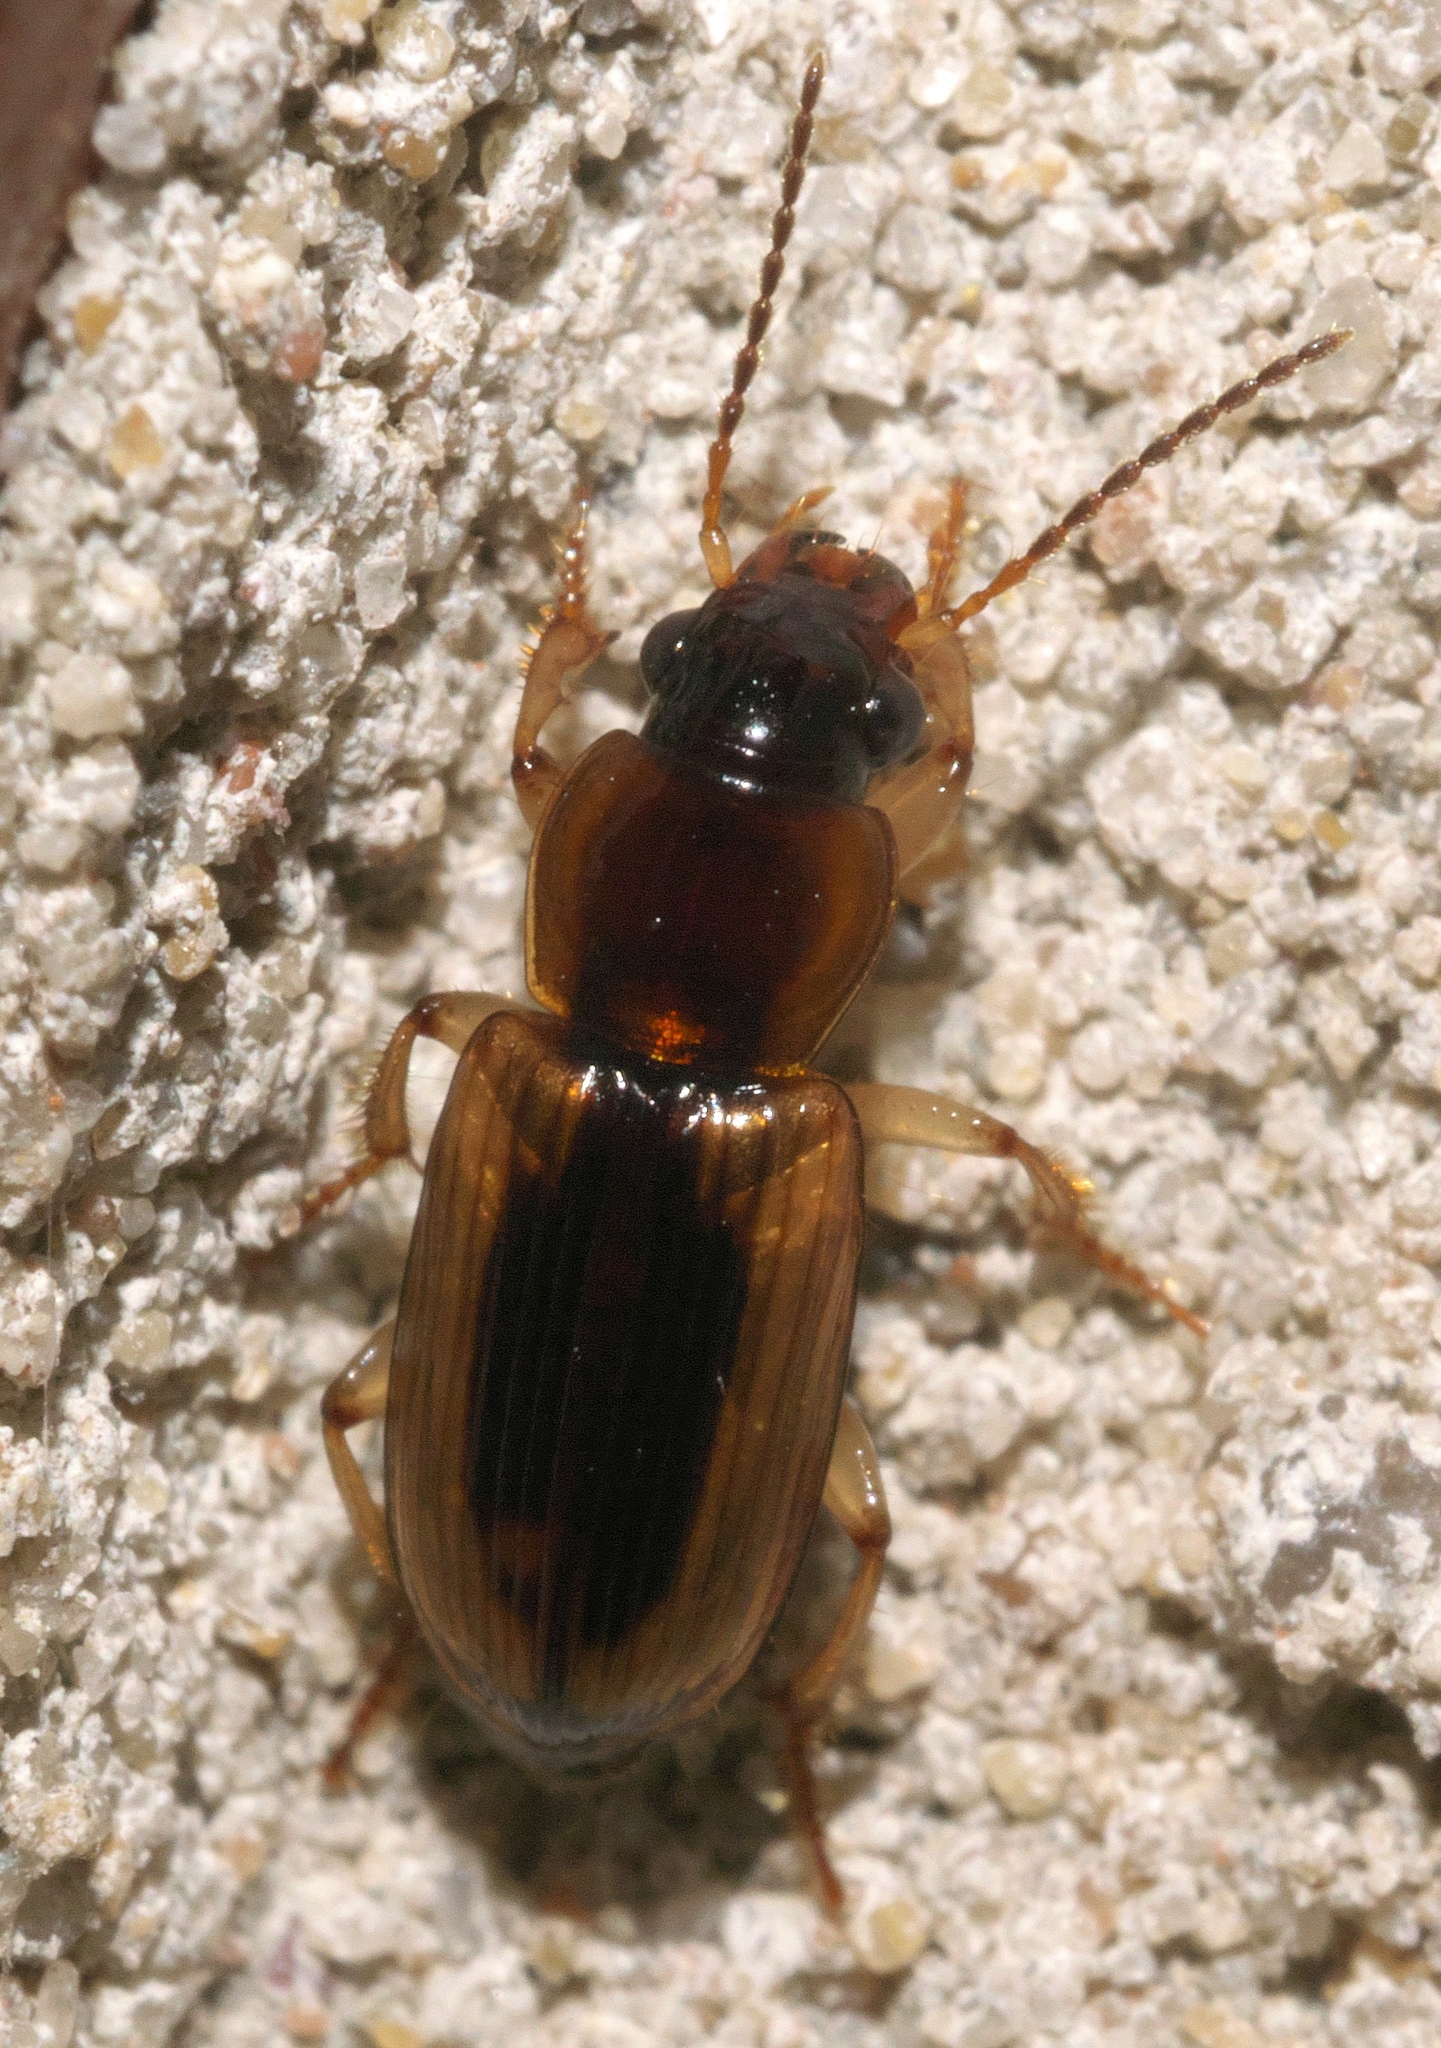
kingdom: Animalia
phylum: Arthropoda
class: Insecta
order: Coleoptera
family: Carabidae
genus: Stenolophus
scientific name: Stenolophus lecontei
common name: Leconte's seedcorn beetle
